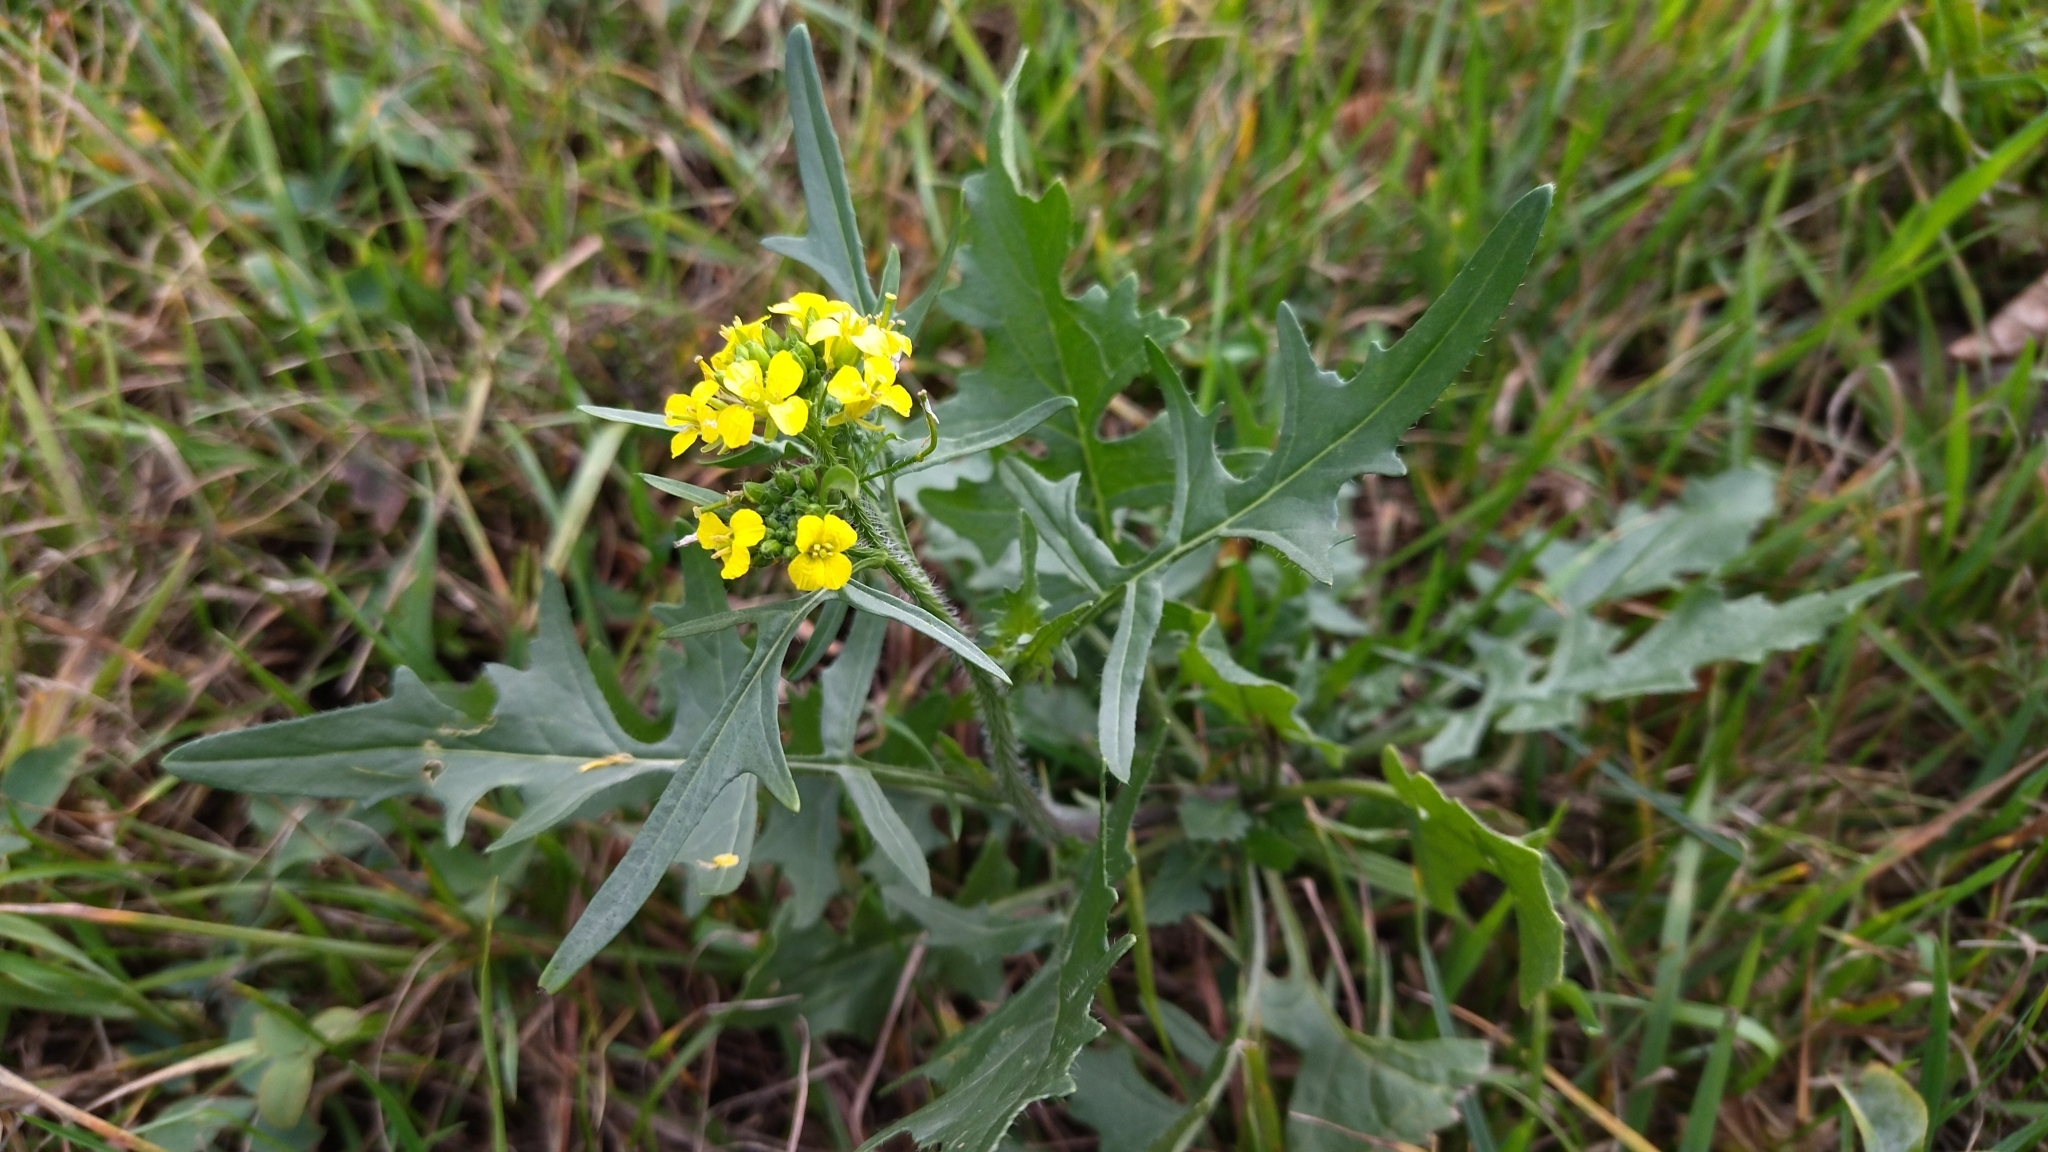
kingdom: Plantae
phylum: Tracheophyta
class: Magnoliopsida
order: Brassicales
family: Brassicaceae
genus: Sisymbrium
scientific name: Sisymbrium loeselii
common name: False london-rocket
